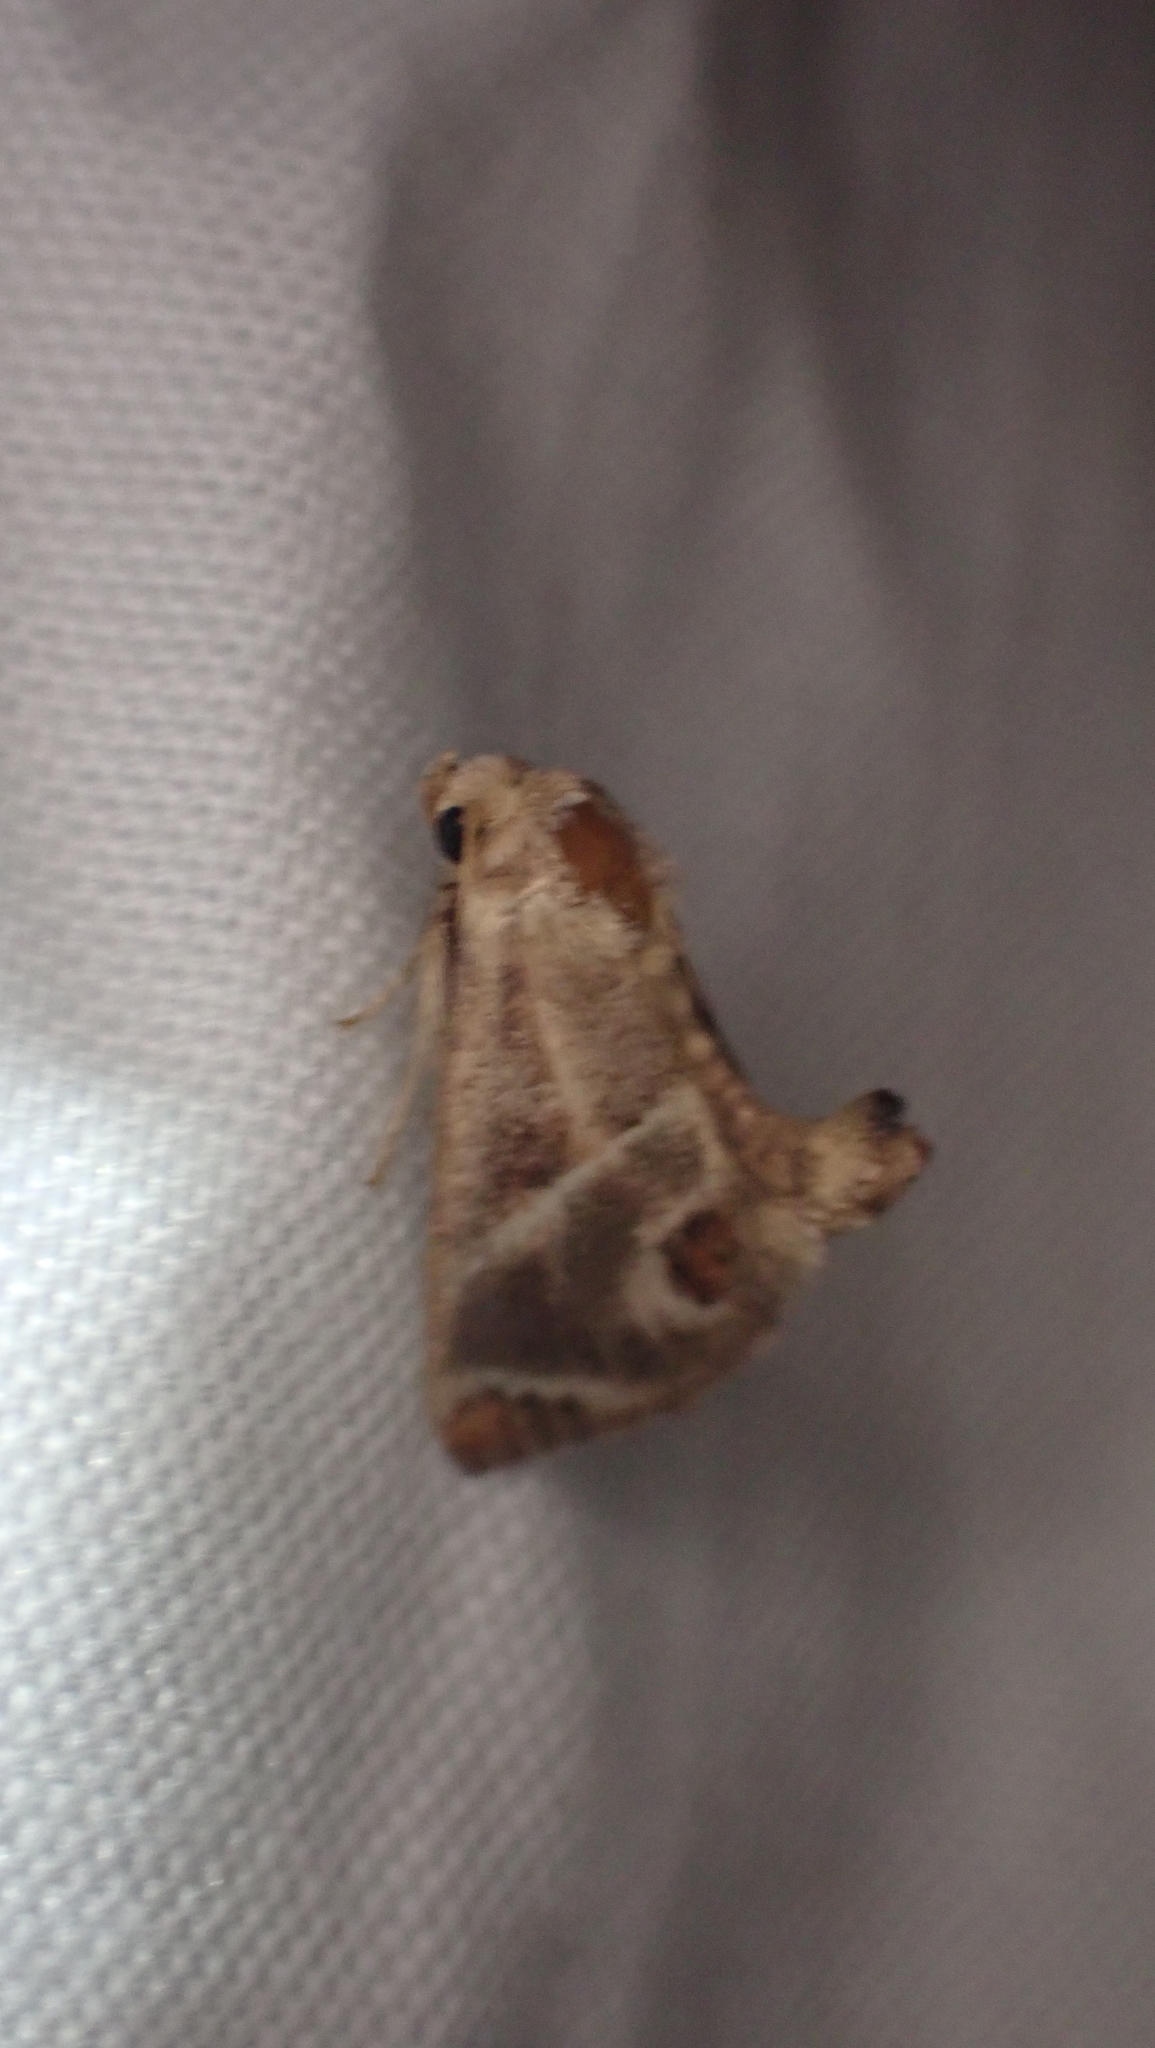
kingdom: Animalia
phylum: Arthropoda
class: Insecta
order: Lepidoptera
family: Limacodidae
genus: Apoda
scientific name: Apoda biguttata
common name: Shagreened slug moth
